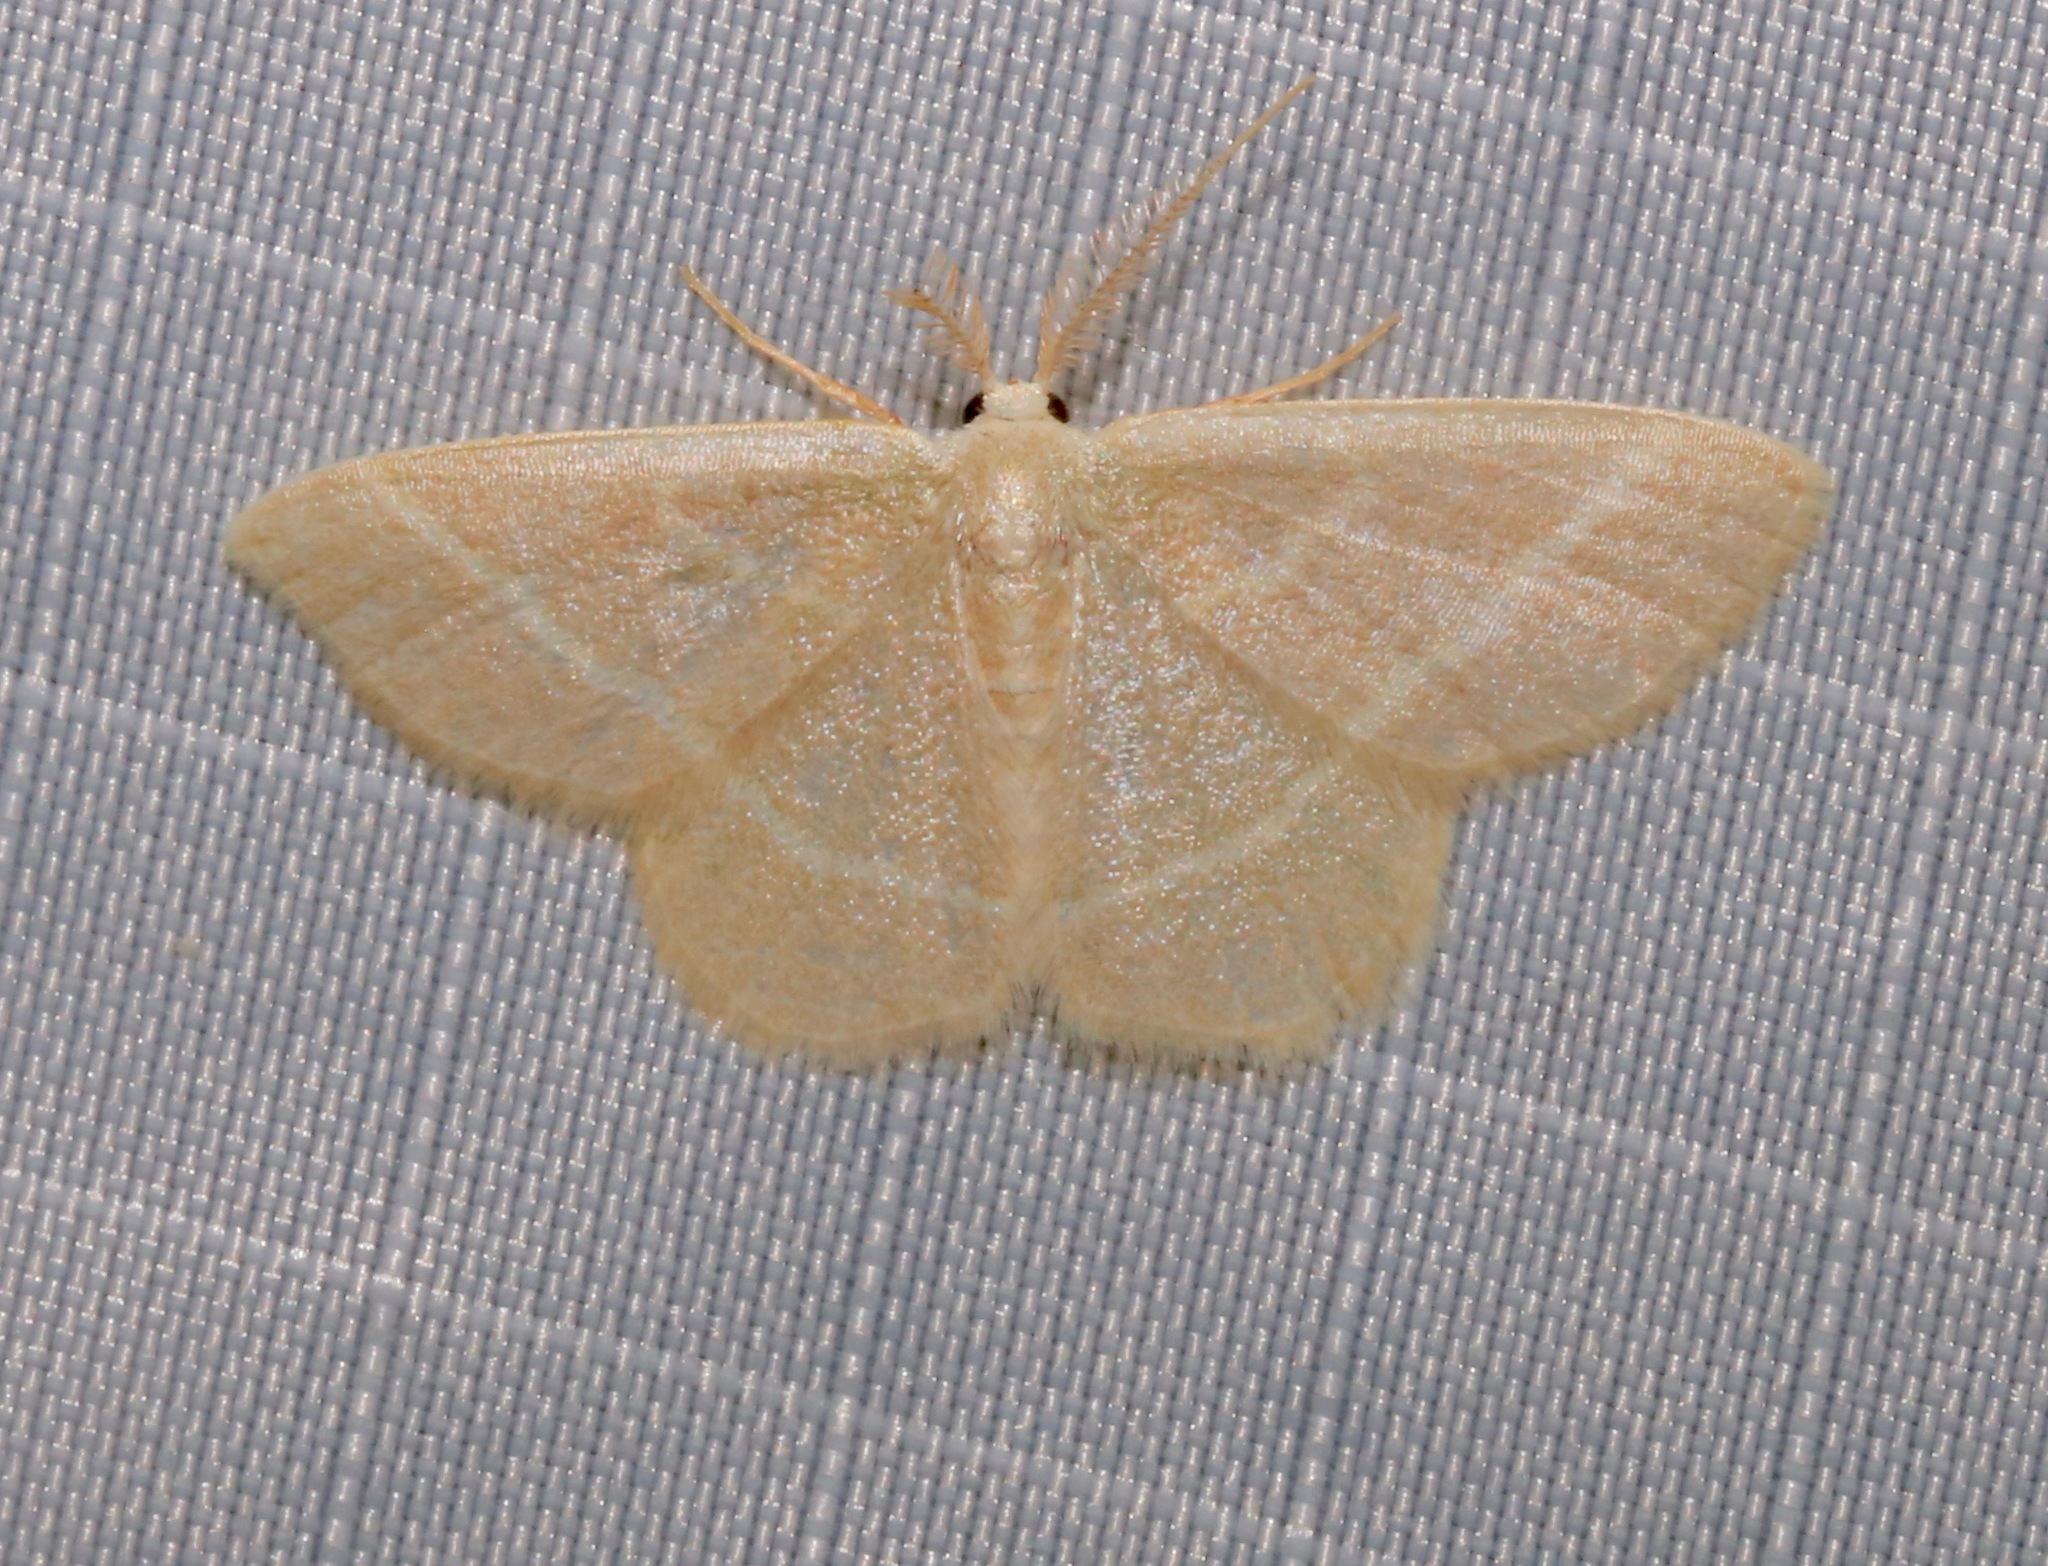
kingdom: Animalia
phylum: Arthropoda
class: Insecta
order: Lepidoptera
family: Geometridae
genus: Chlorochlamys
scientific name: Chlorochlamys chloroleucaria
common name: Blackberry looper
